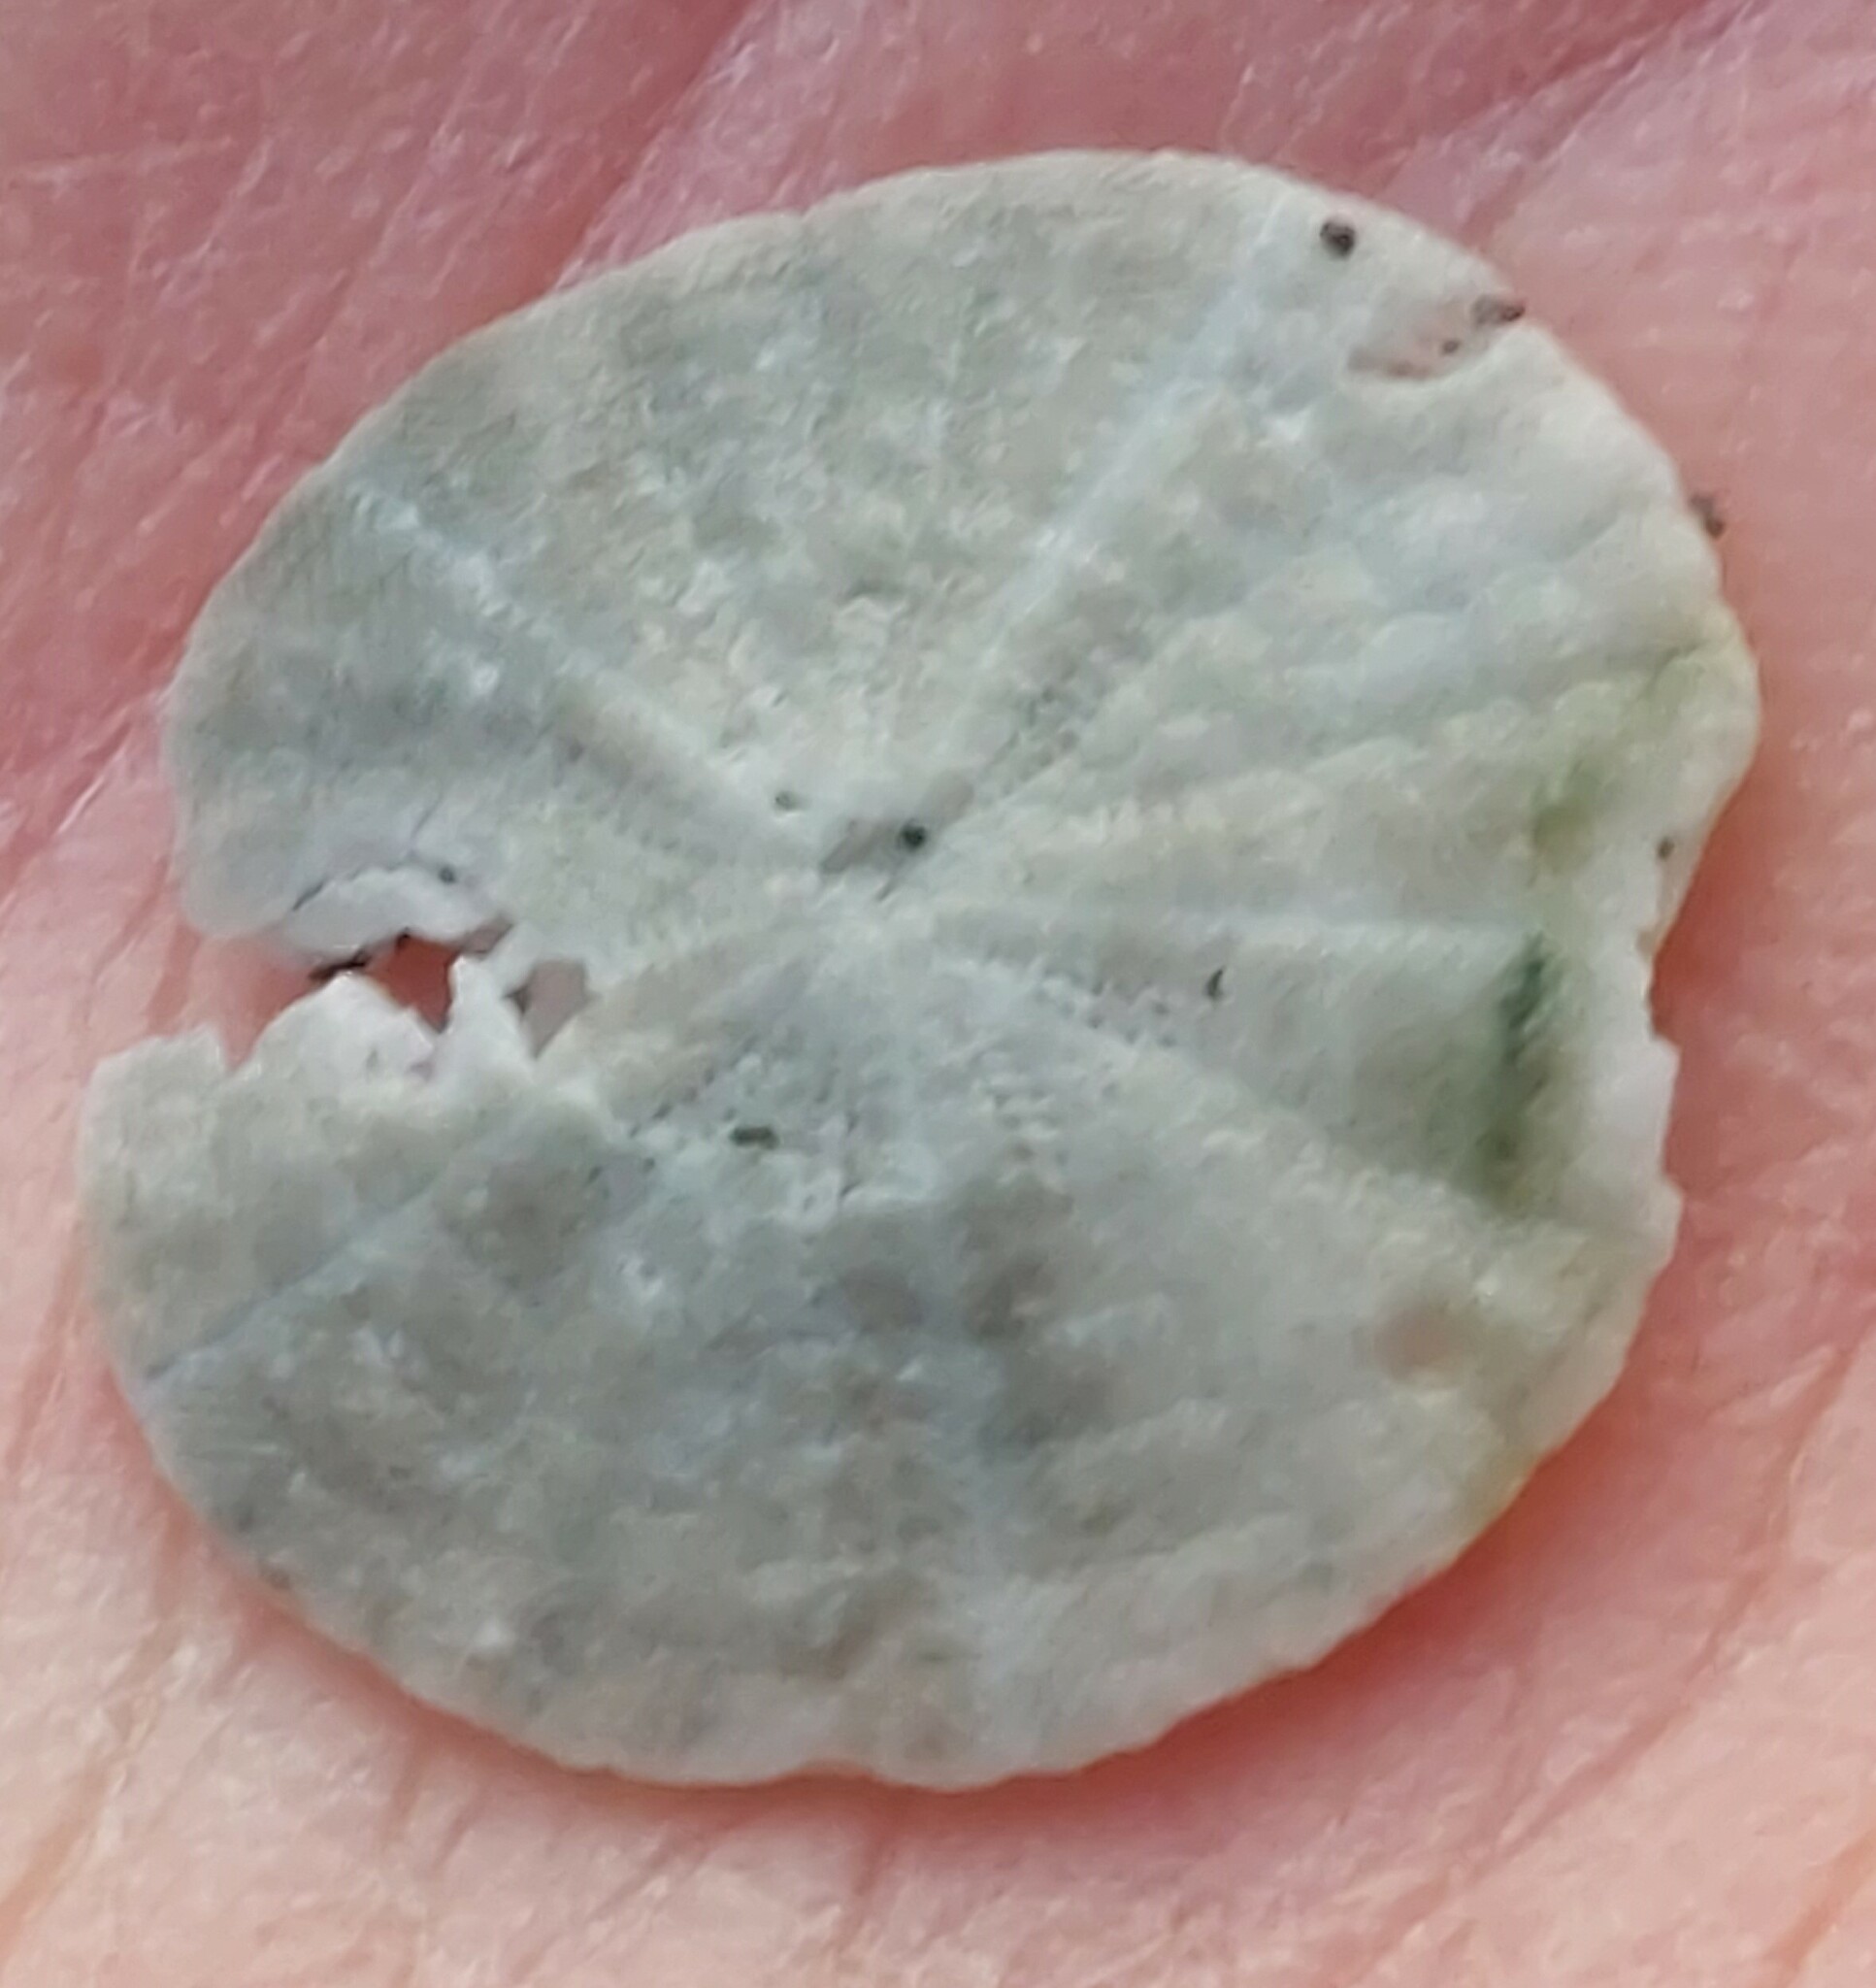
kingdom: Animalia
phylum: Echinodermata
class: Echinoidea
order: Clypeasteroida
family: Clypeasteridae
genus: Fellaster
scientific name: Fellaster zelandiae
